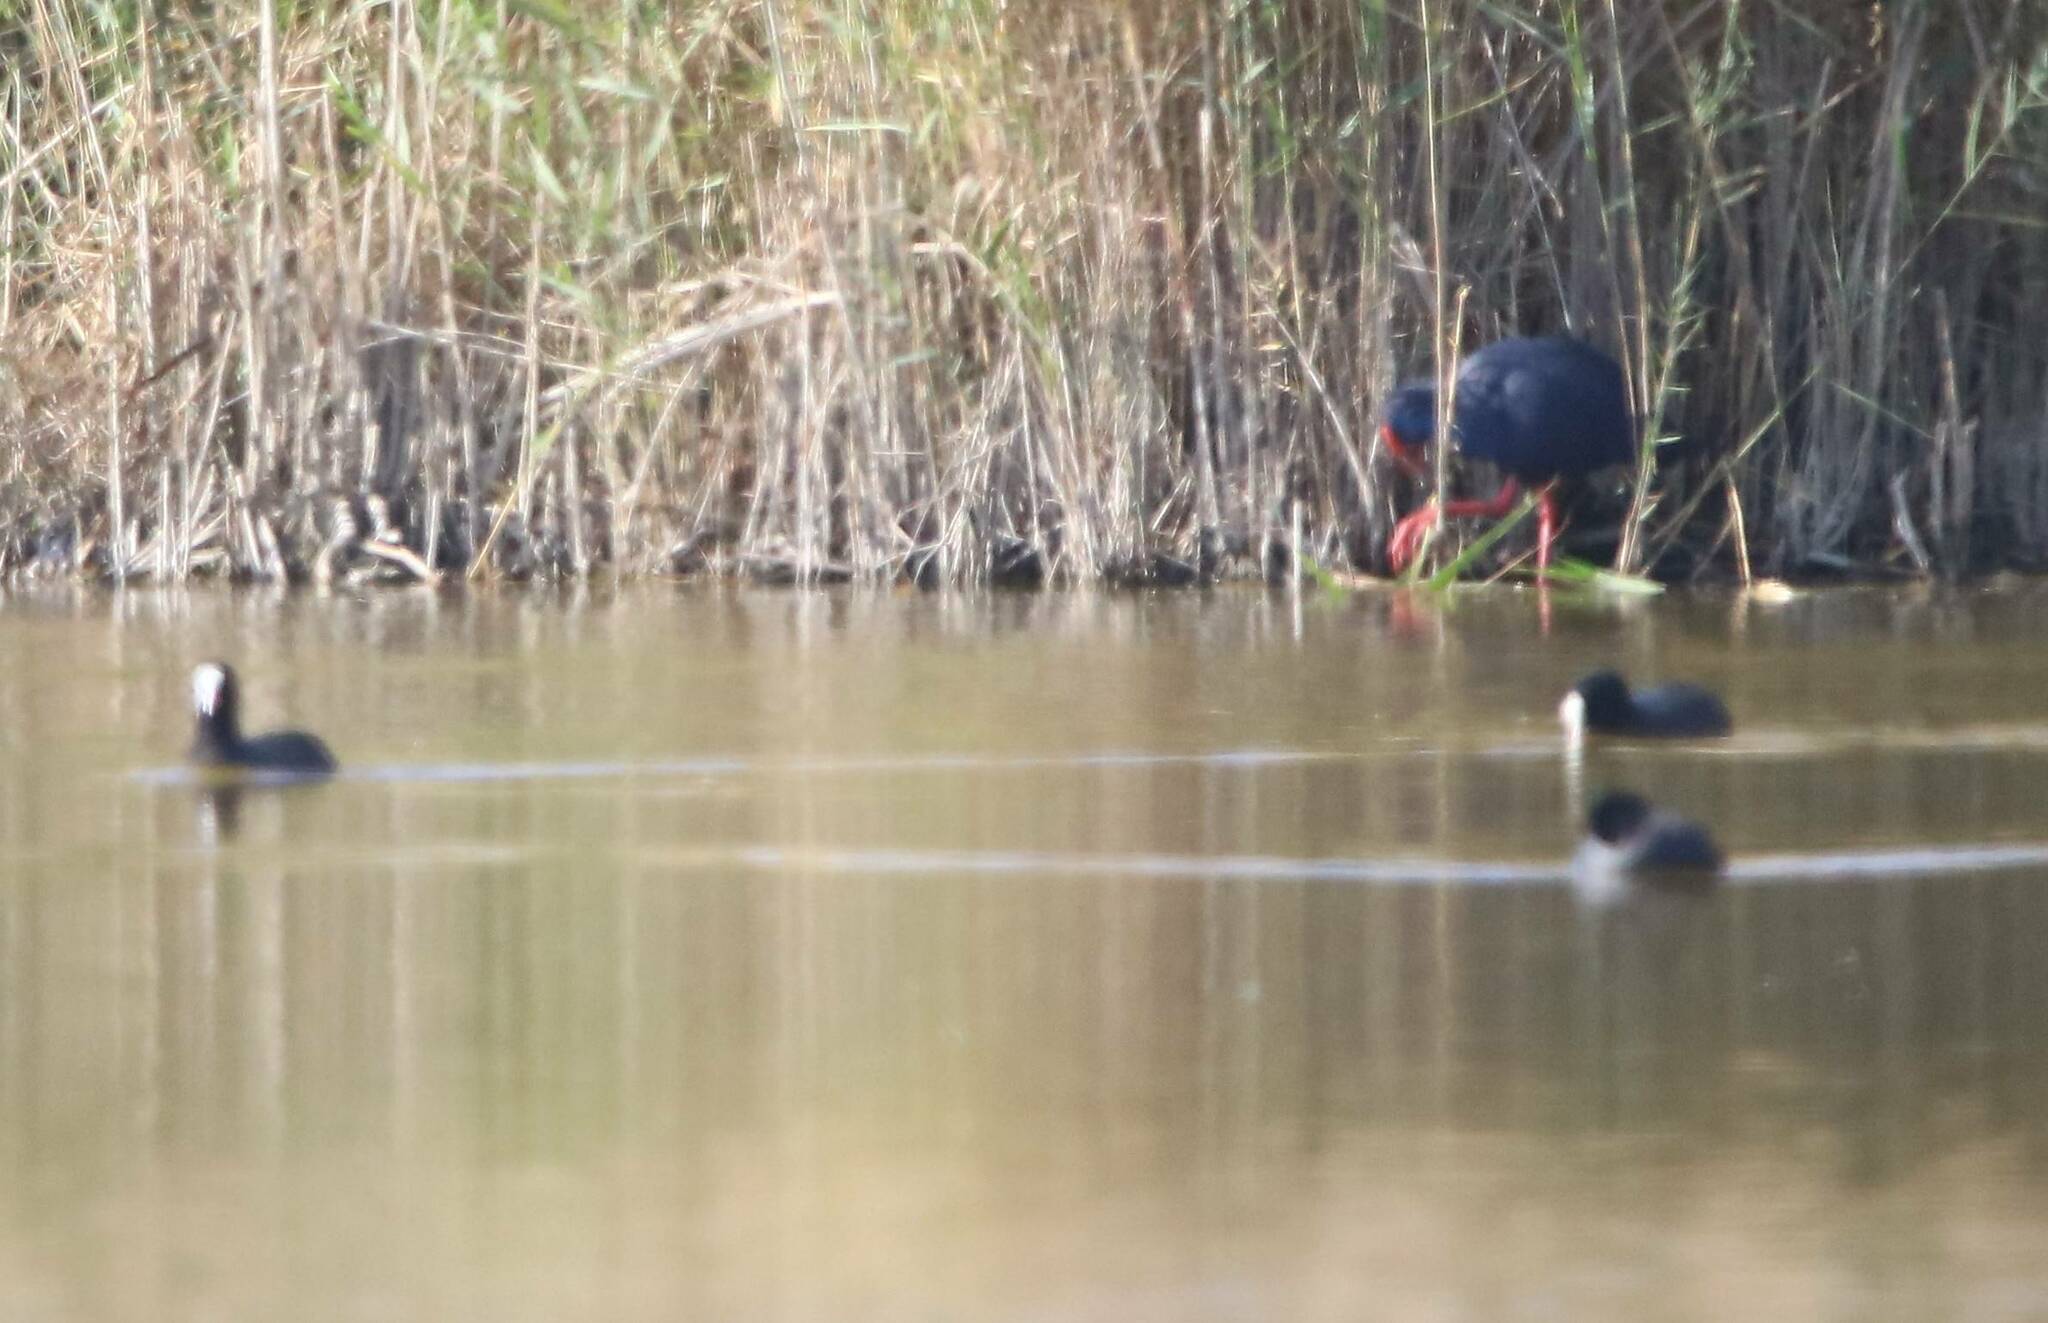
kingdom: Animalia
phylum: Chordata
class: Aves
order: Gruiformes
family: Rallidae
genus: Porphyrio
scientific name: Porphyrio porphyrio
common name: Purple swamphen
